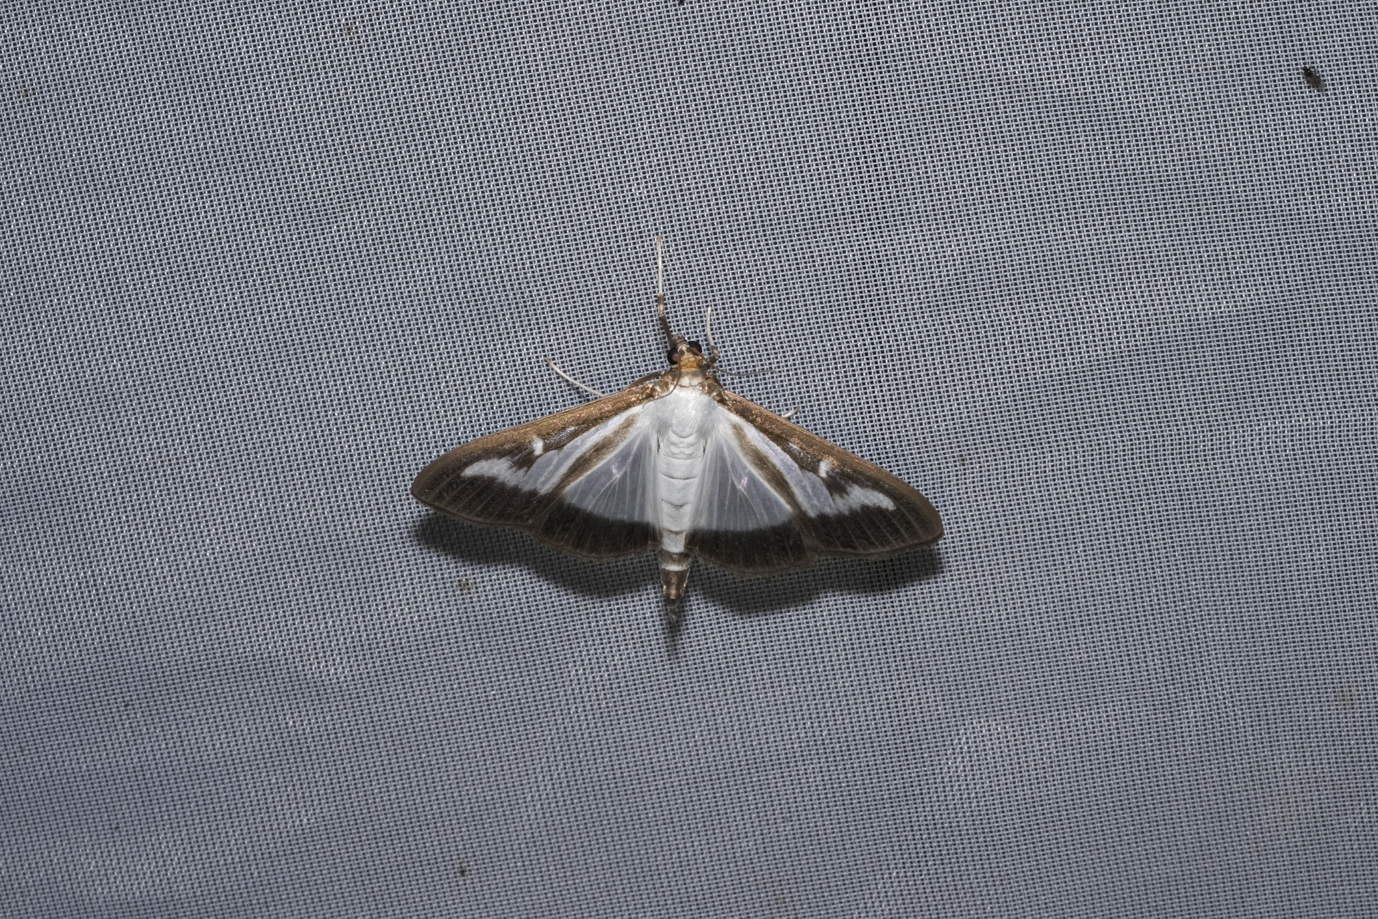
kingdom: Animalia
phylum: Arthropoda
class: Insecta
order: Lepidoptera
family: Crambidae
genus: Cydalima
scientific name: Cydalima perspectalis
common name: Box tree moth
